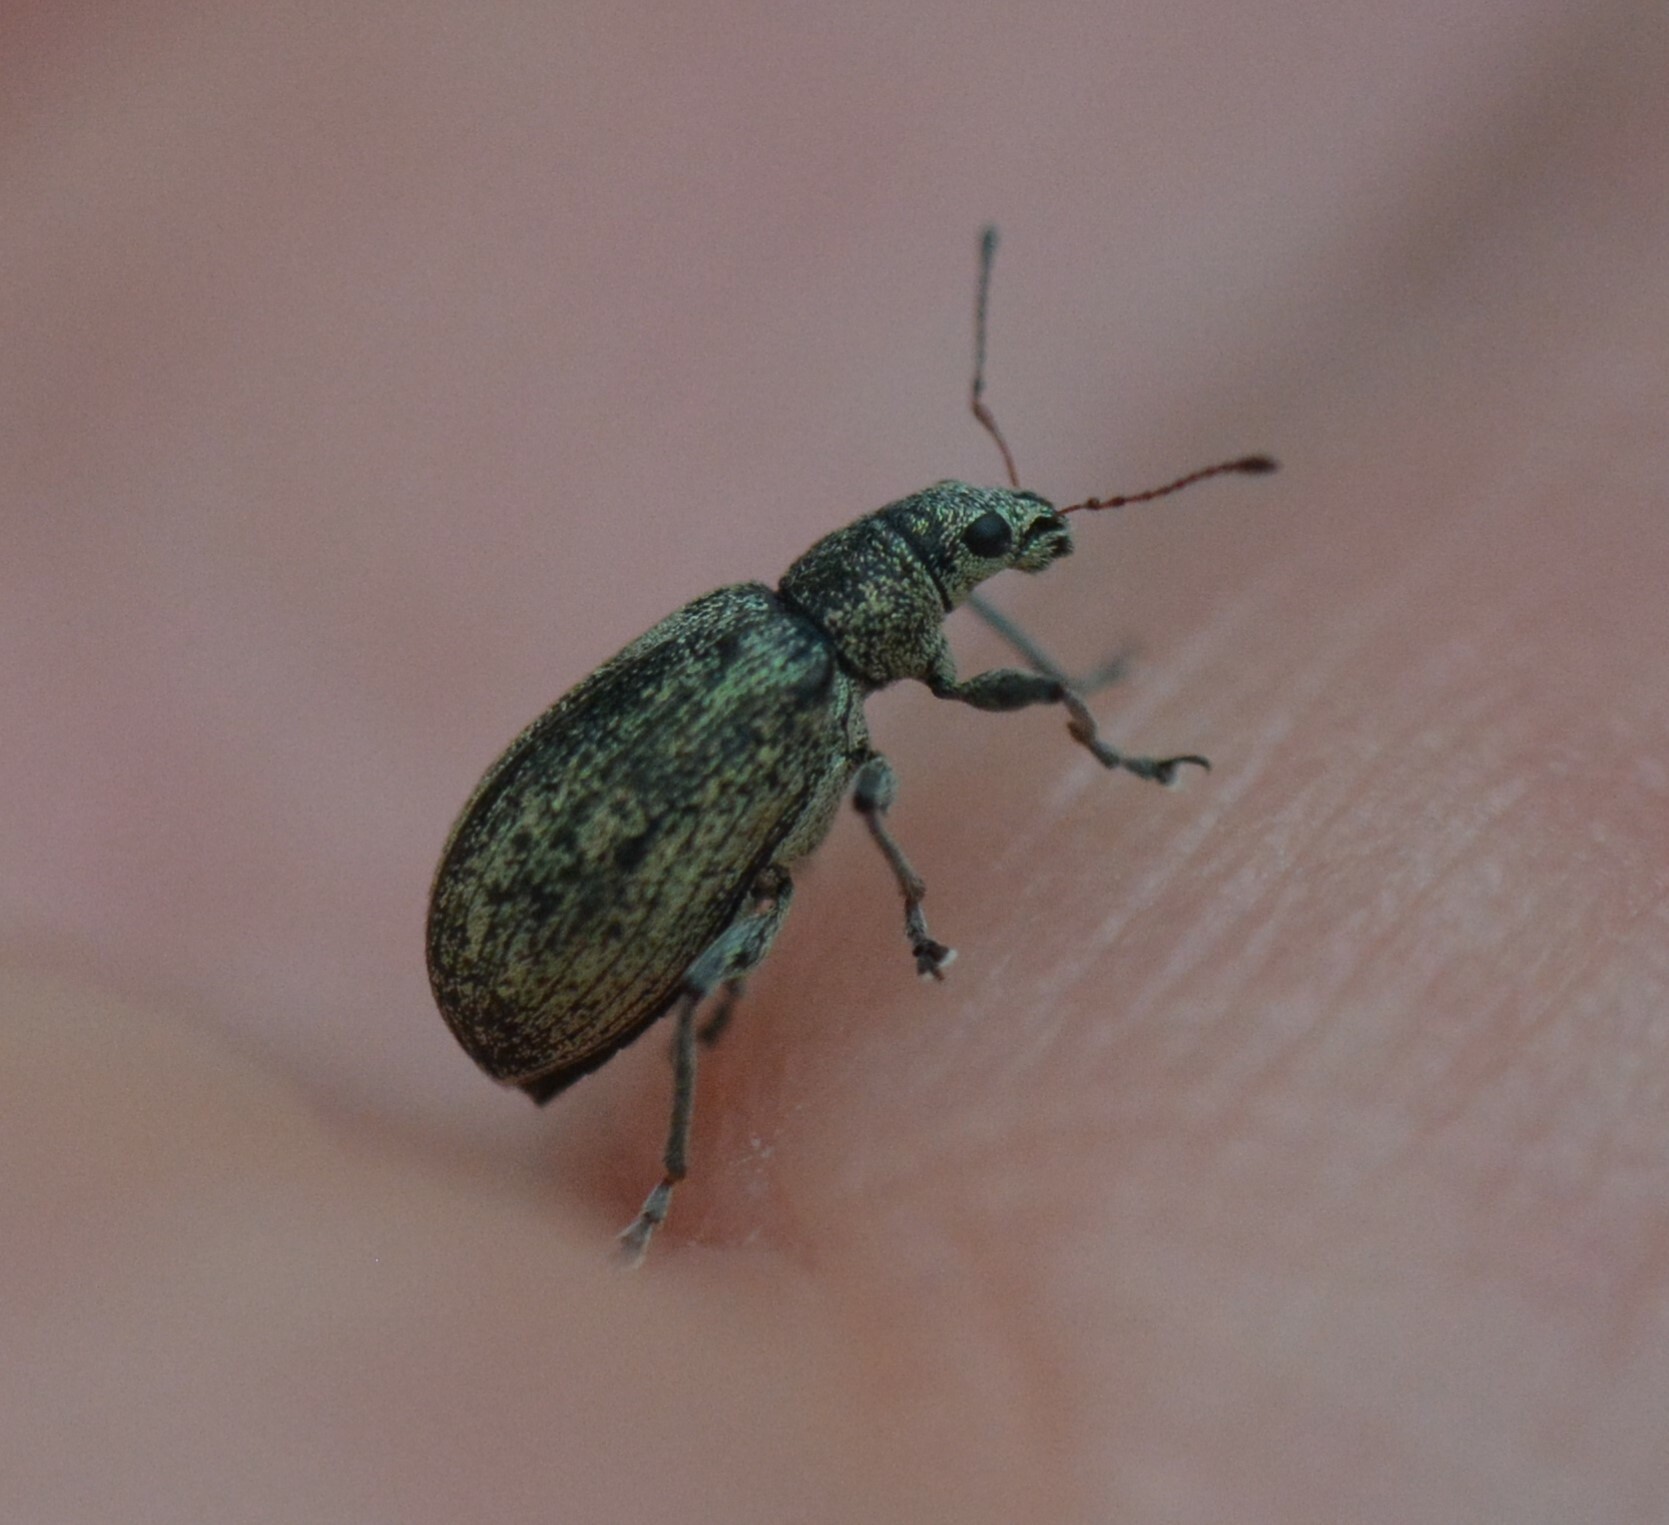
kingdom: Animalia
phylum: Arthropoda
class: Insecta
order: Coleoptera
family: Curculionidae
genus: Polydrusus
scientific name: Polydrusus cervinus
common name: Weevil
